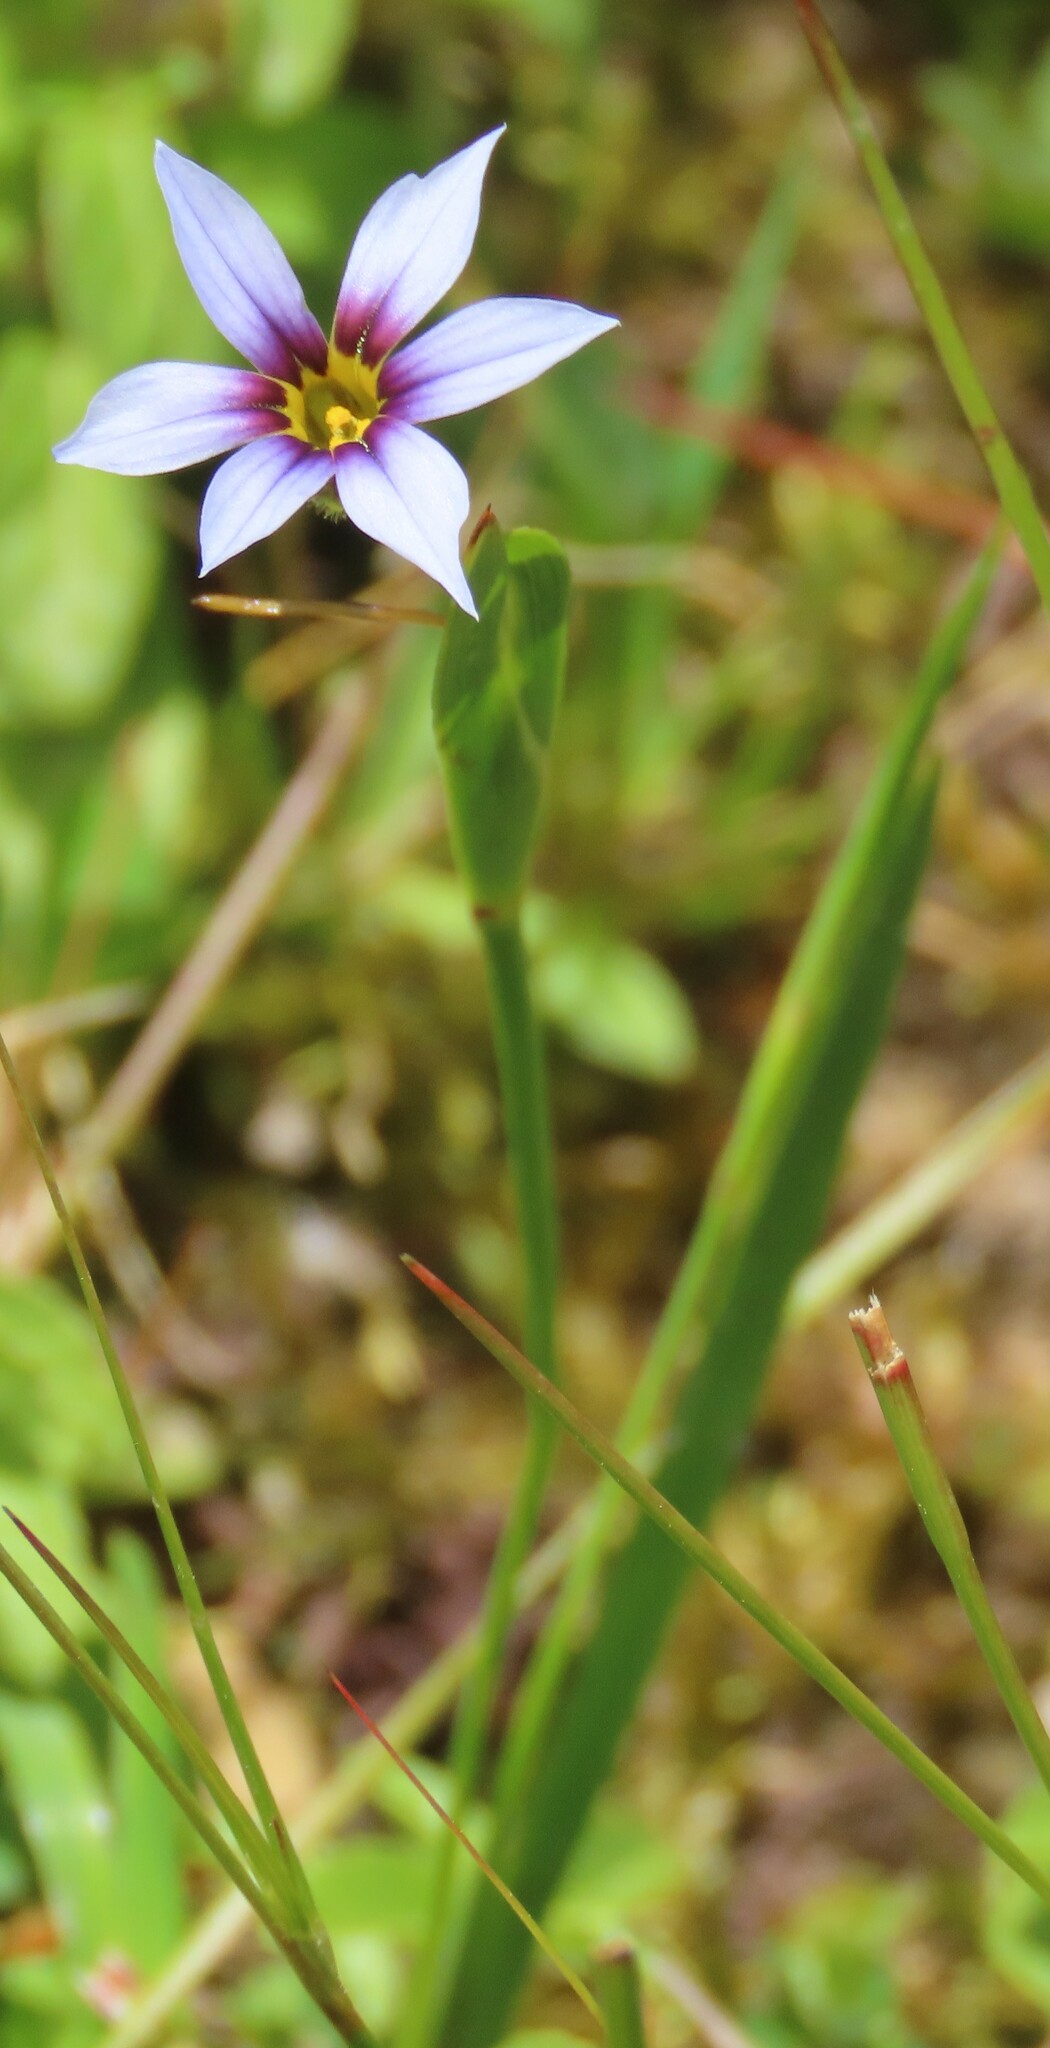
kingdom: Plantae
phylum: Tracheophyta
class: Liliopsida
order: Asparagales
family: Iridaceae
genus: Sisyrinchium
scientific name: Sisyrinchium micranthum
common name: Bermuda pigroot
